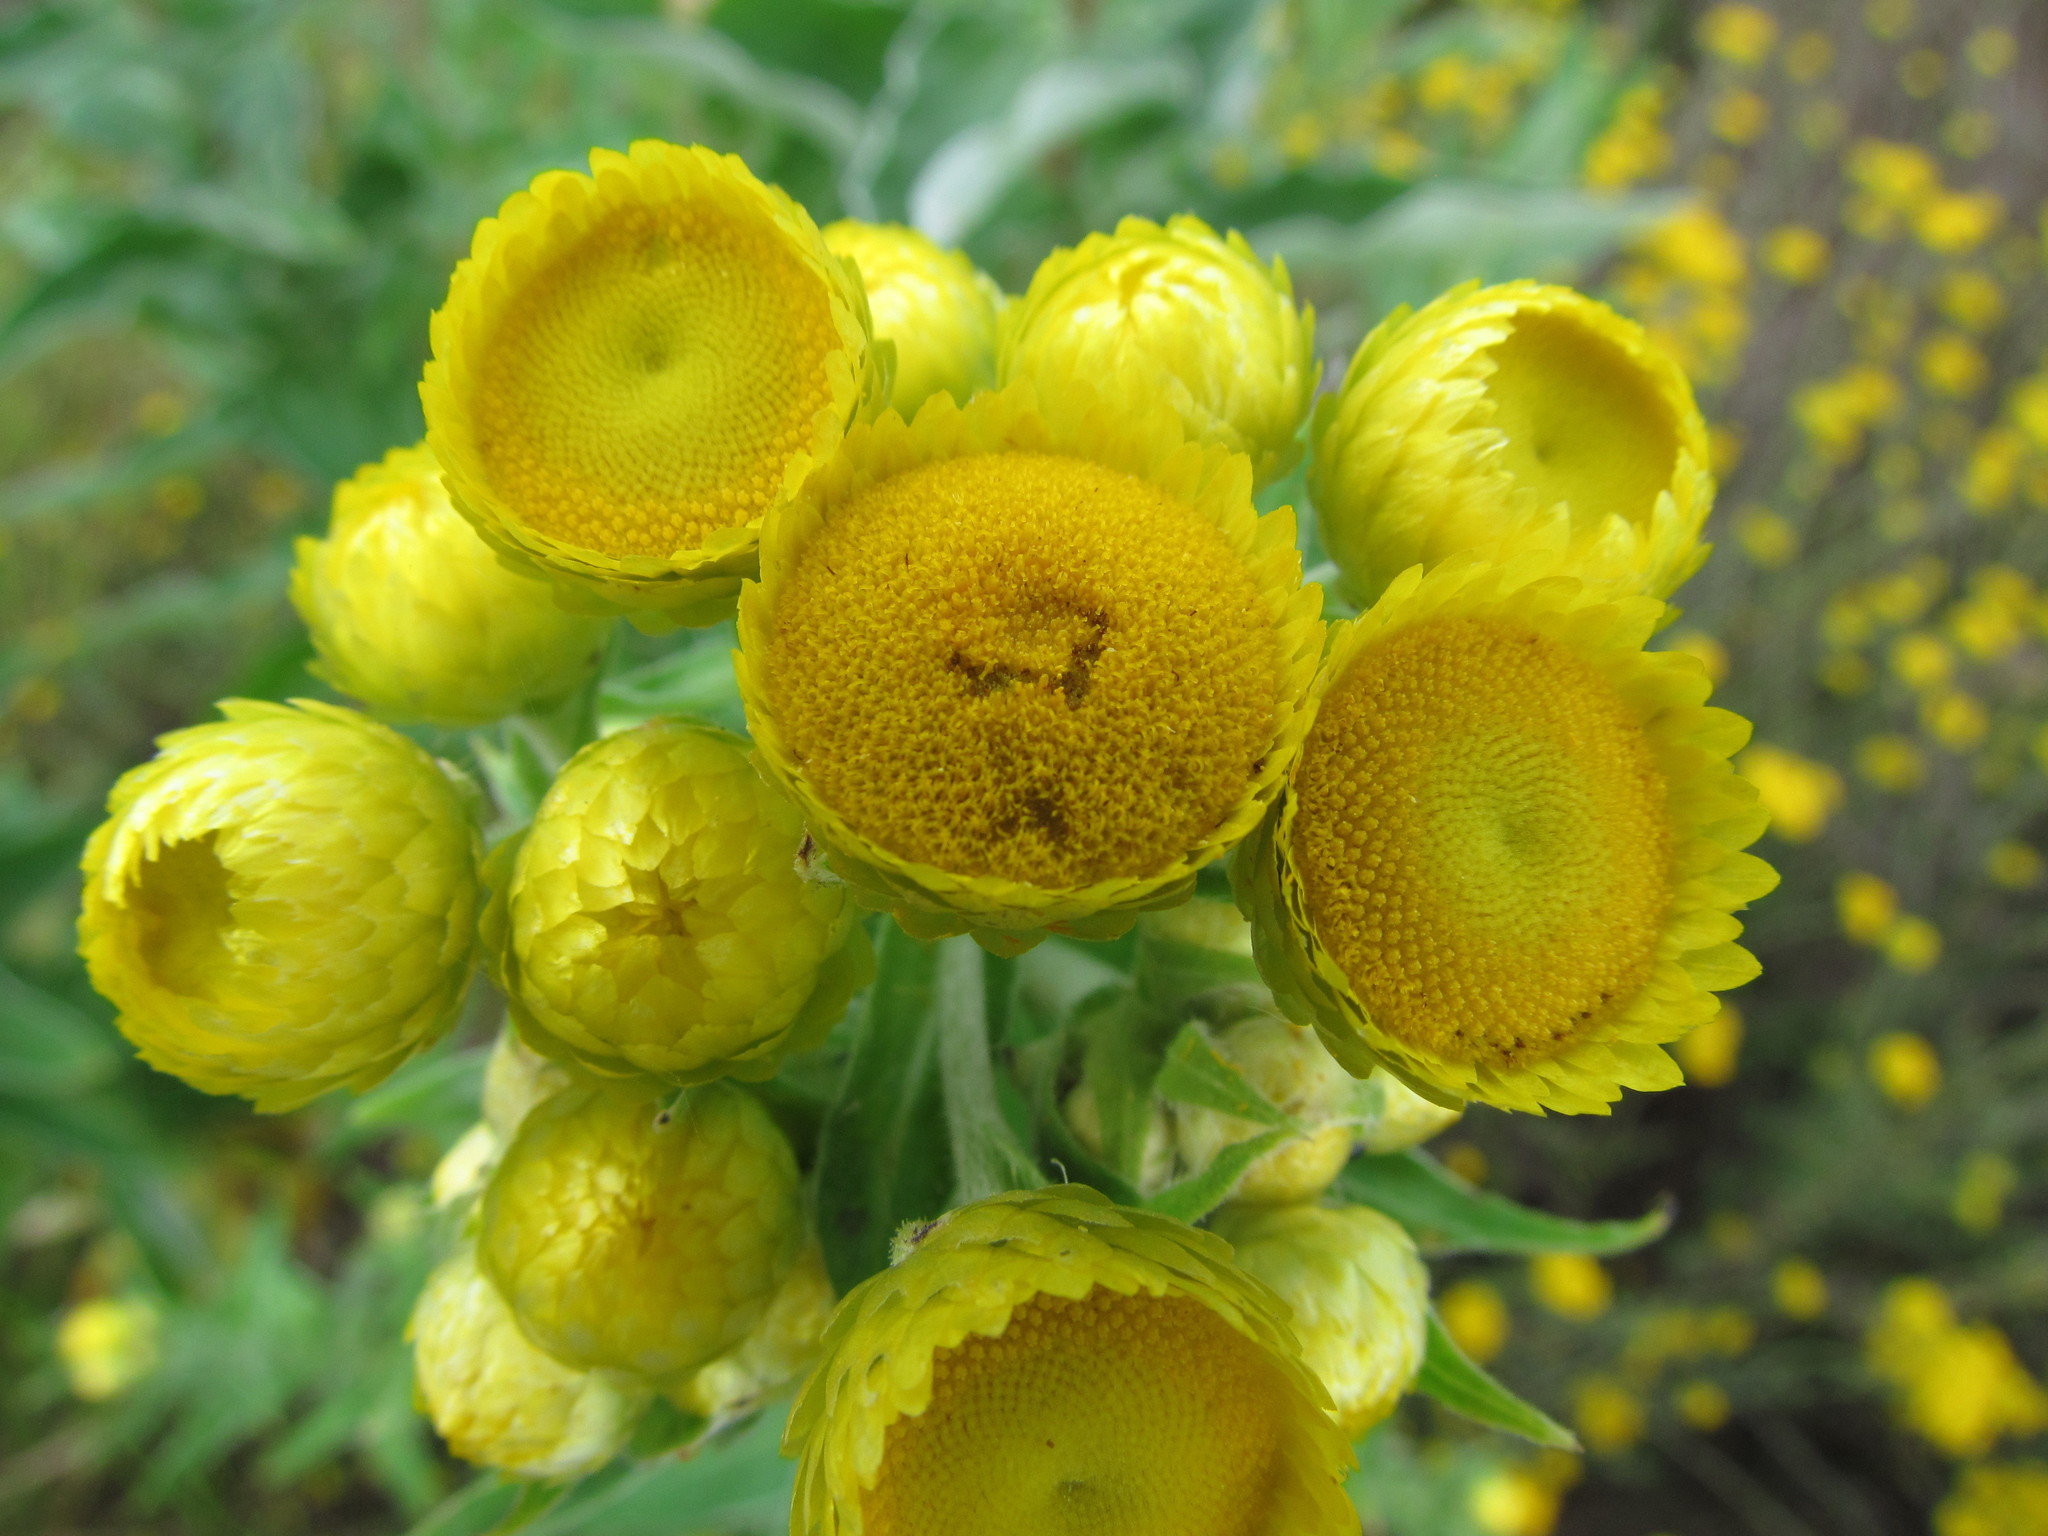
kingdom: Plantae
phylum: Tracheophyta
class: Magnoliopsida
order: Asterales
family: Asteraceae
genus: Helichrysum
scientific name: Helichrysum foetidum
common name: Stinking everlasting
